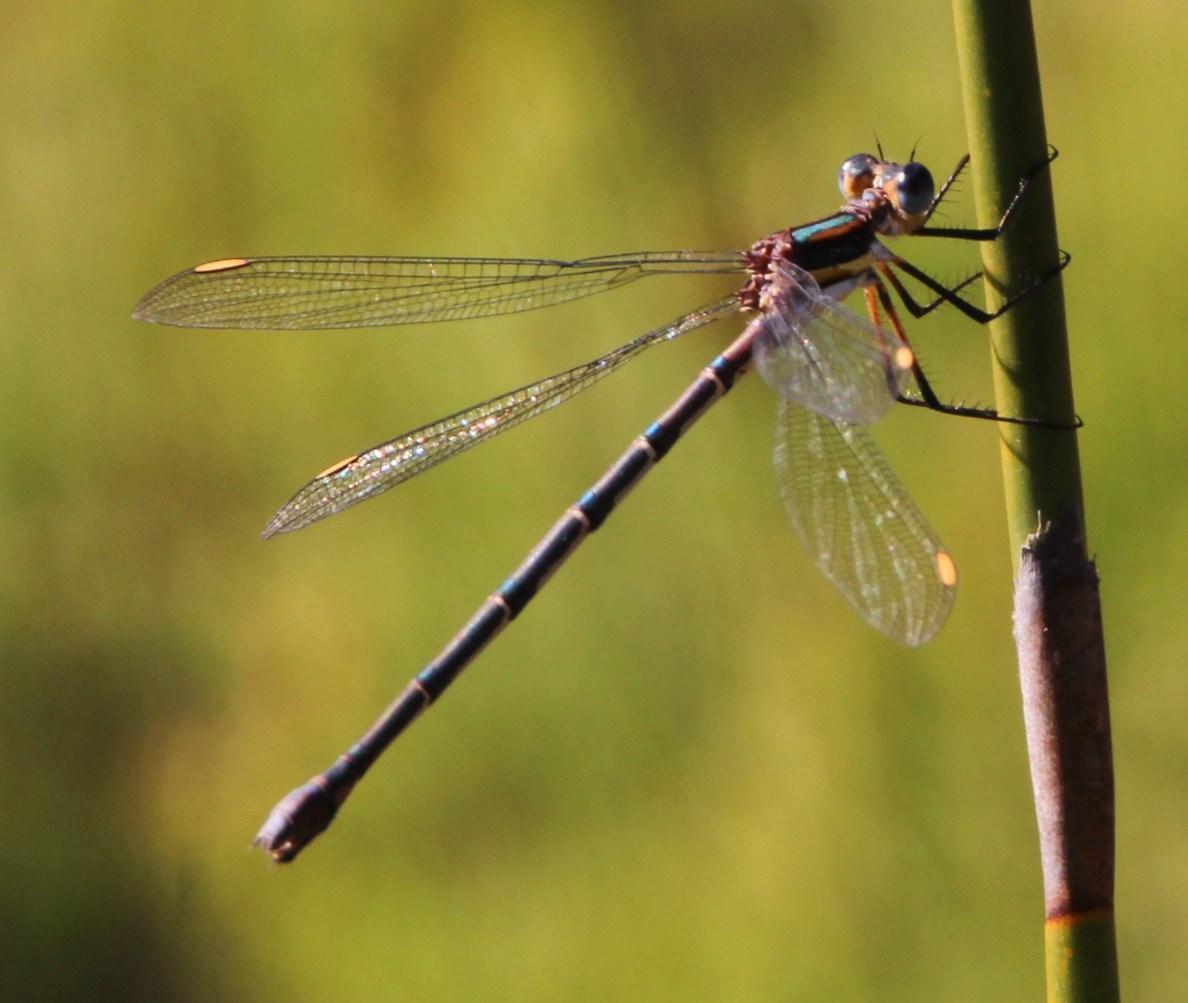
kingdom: Animalia
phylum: Arthropoda
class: Insecta
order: Odonata
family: Synlestidae
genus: Chlorolestes
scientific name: Chlorolestes conspicuus
